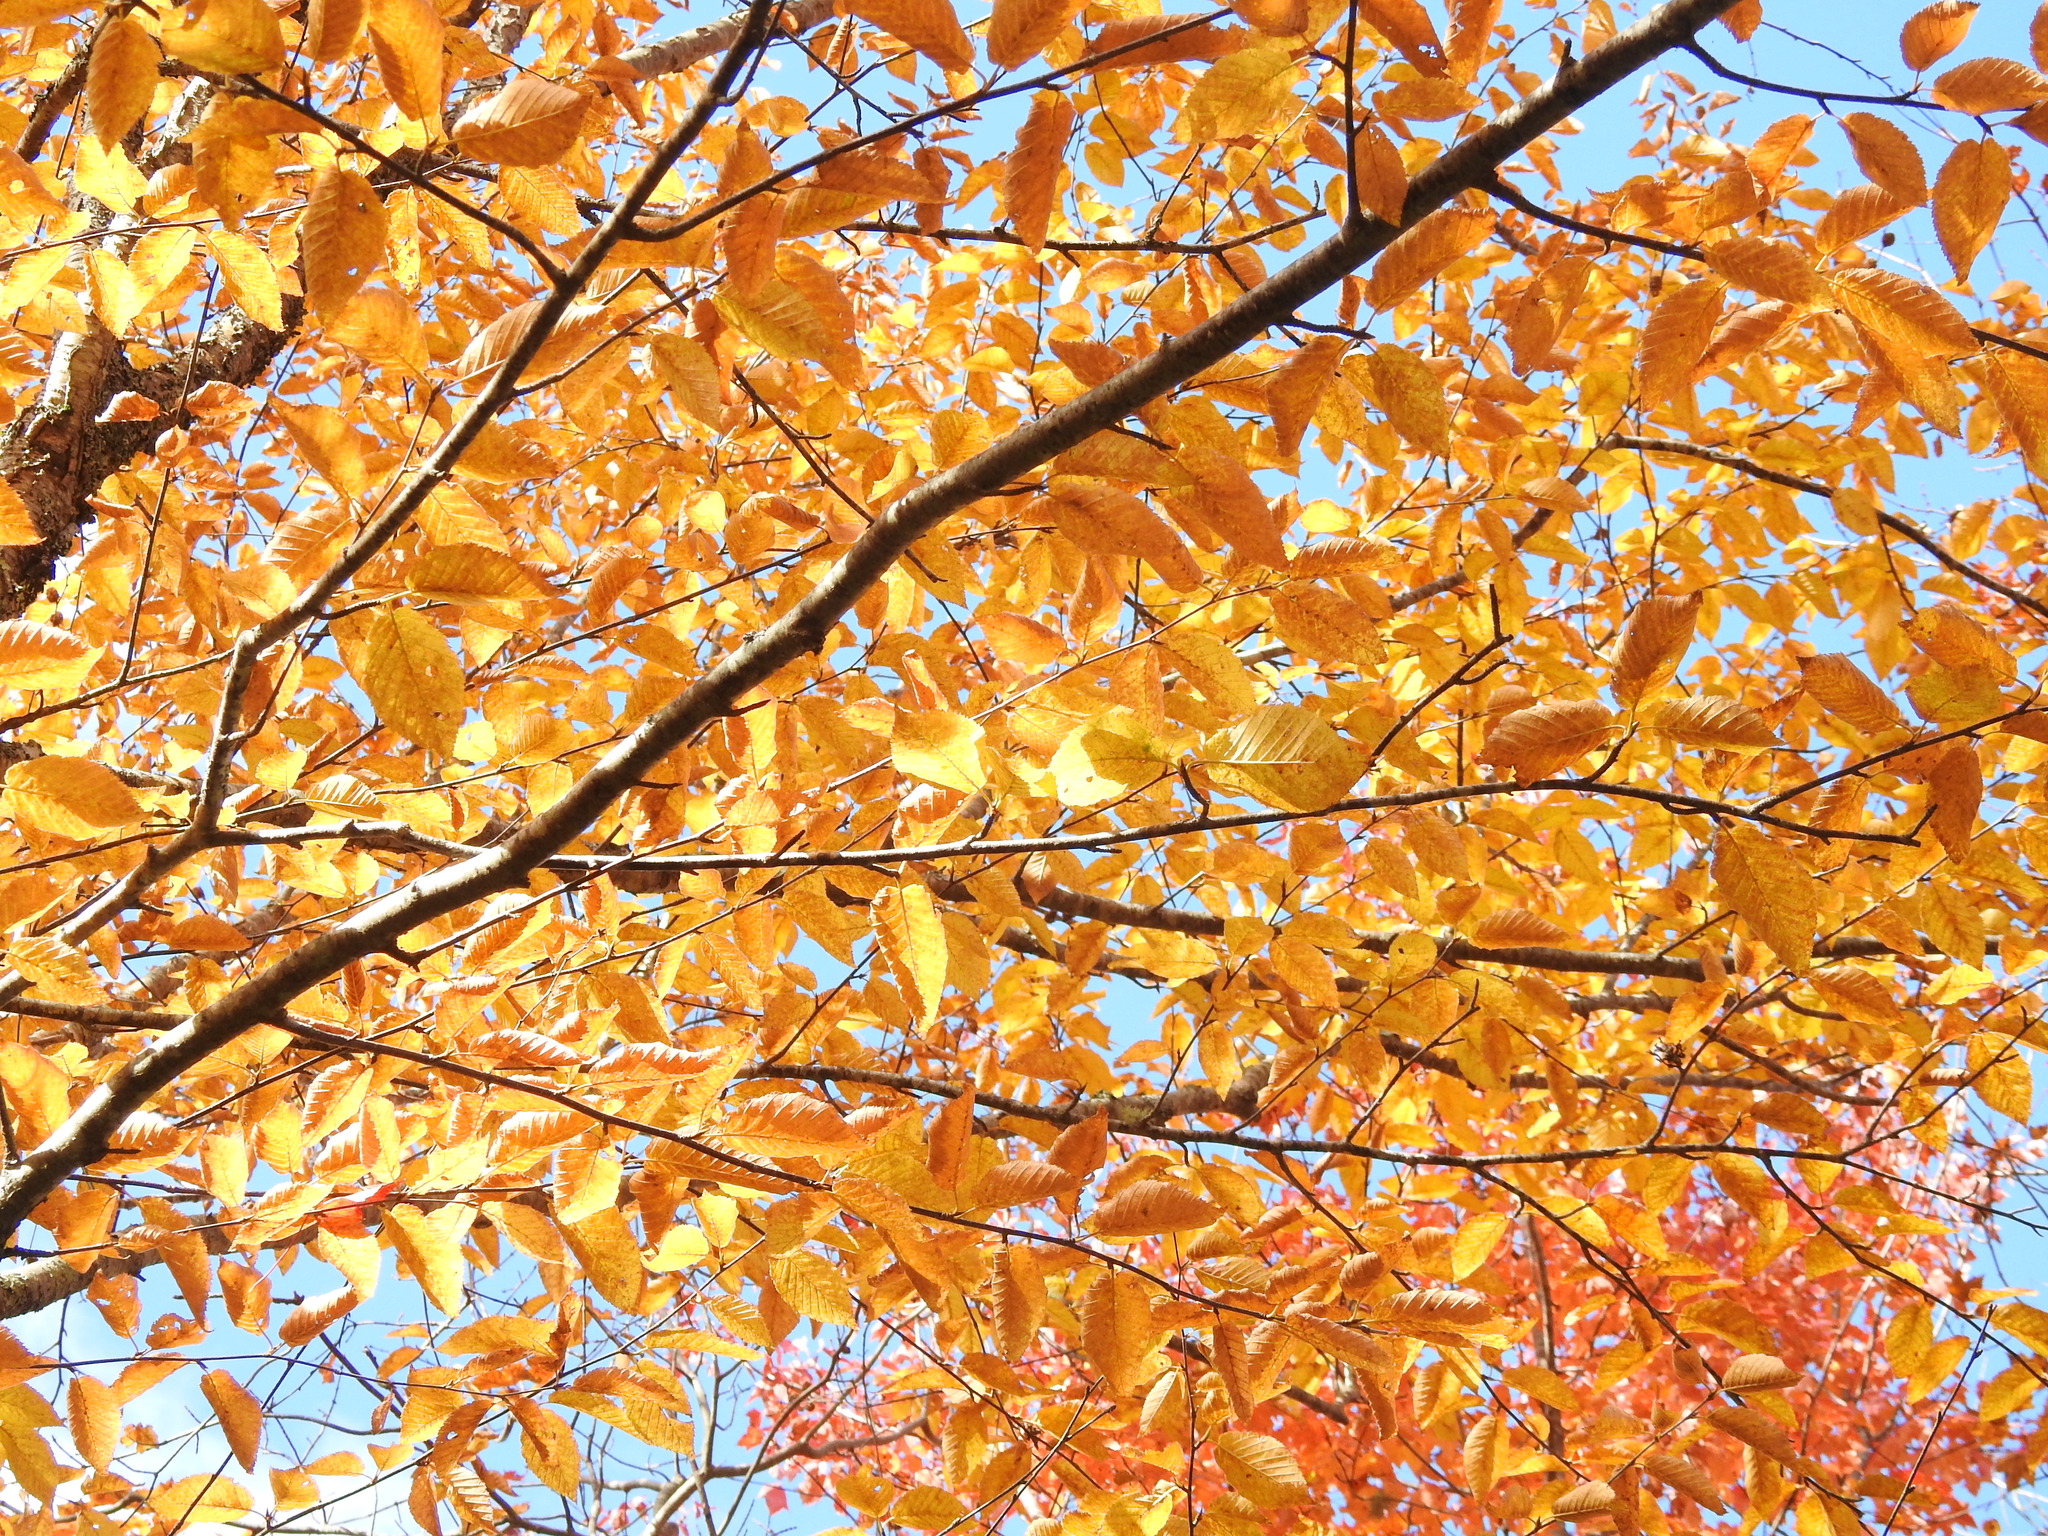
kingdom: Plantae
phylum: Tracheophyta
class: Magnoliopsida
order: Fagales
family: Betulaceae
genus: Betula
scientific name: Betula alleghaniensis
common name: Yellow birch
